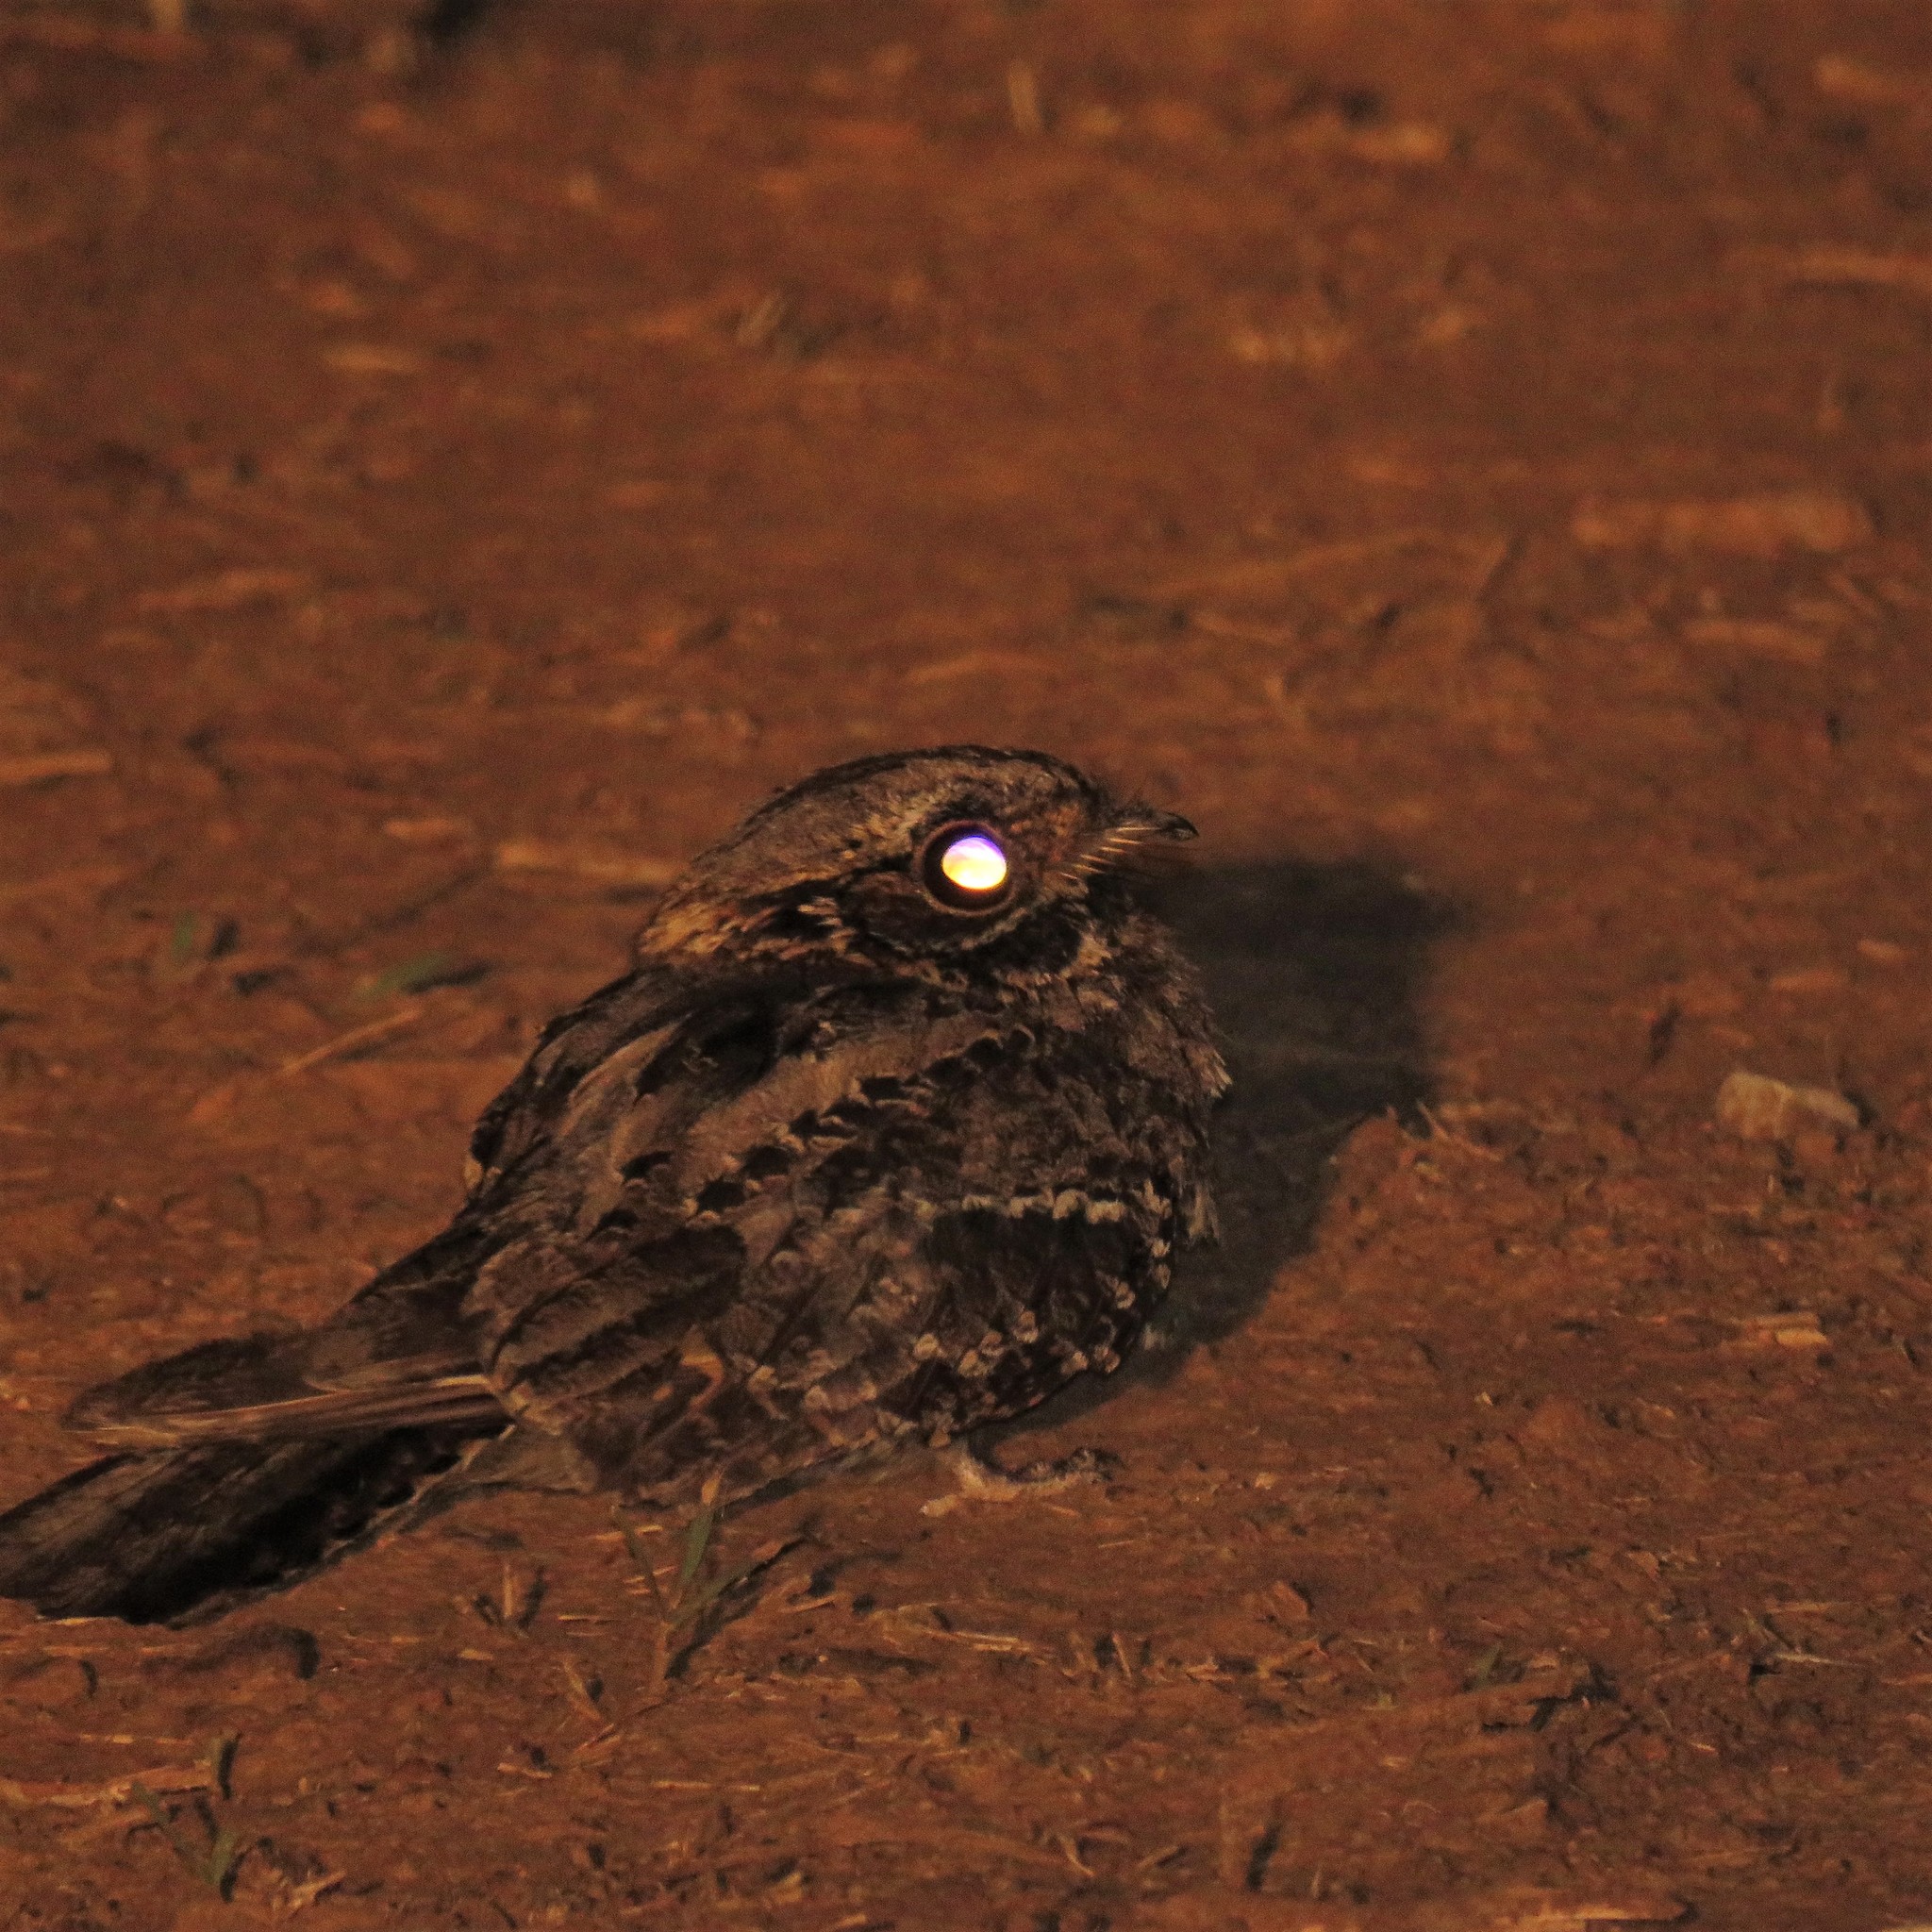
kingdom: Animalia
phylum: Chordata
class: Aves
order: Caprimulgiformes
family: Caprimulgidae
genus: Caprimulgus
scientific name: Caprimulgus pectoralis
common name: Fiery-necked nightjar
